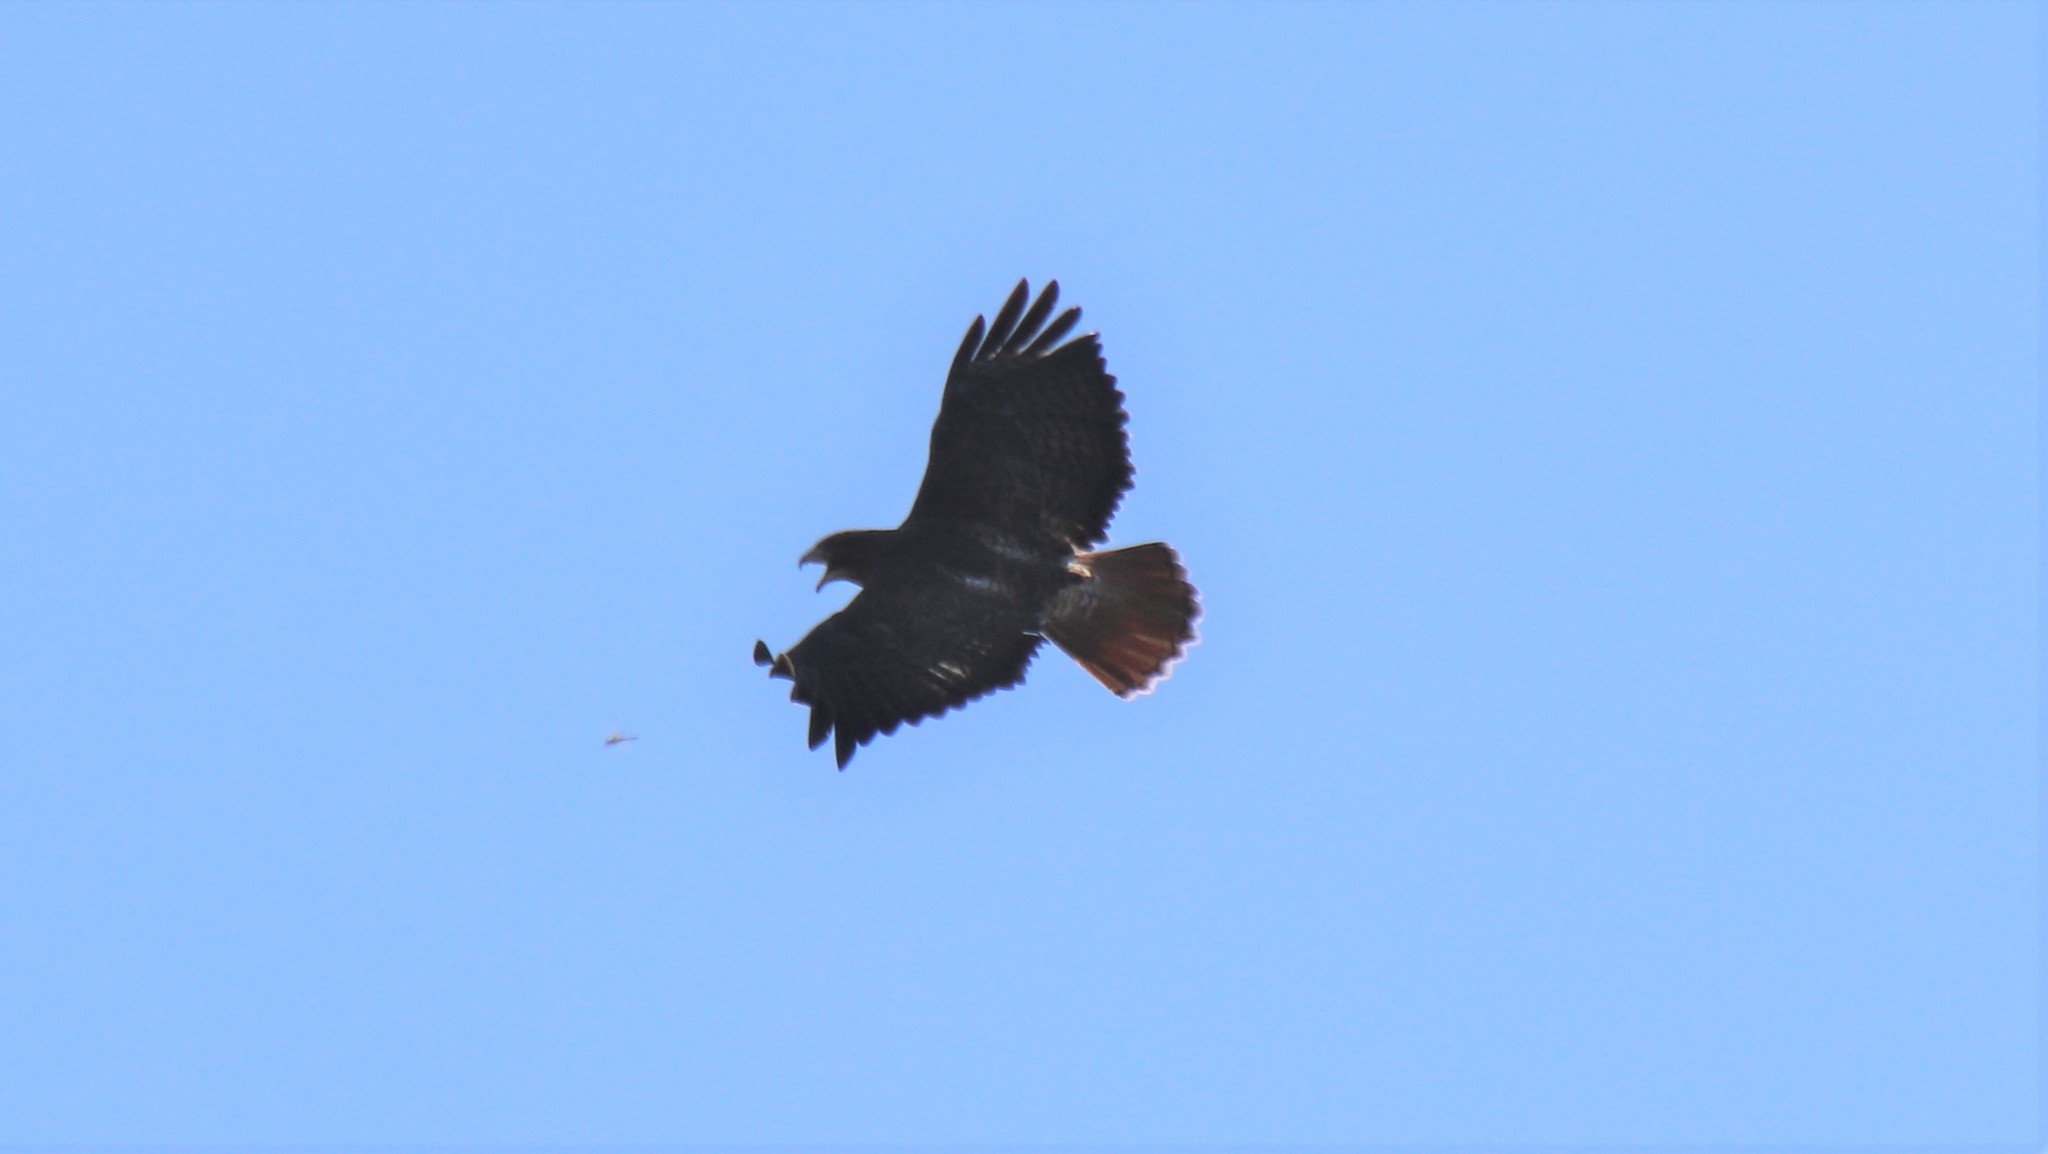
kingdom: Animalia
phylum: Chordata
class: Aves
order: Accipitriformes
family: Accipitridae
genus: Buteo
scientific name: Buteo jamaicensis
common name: Red-tailed hawk
